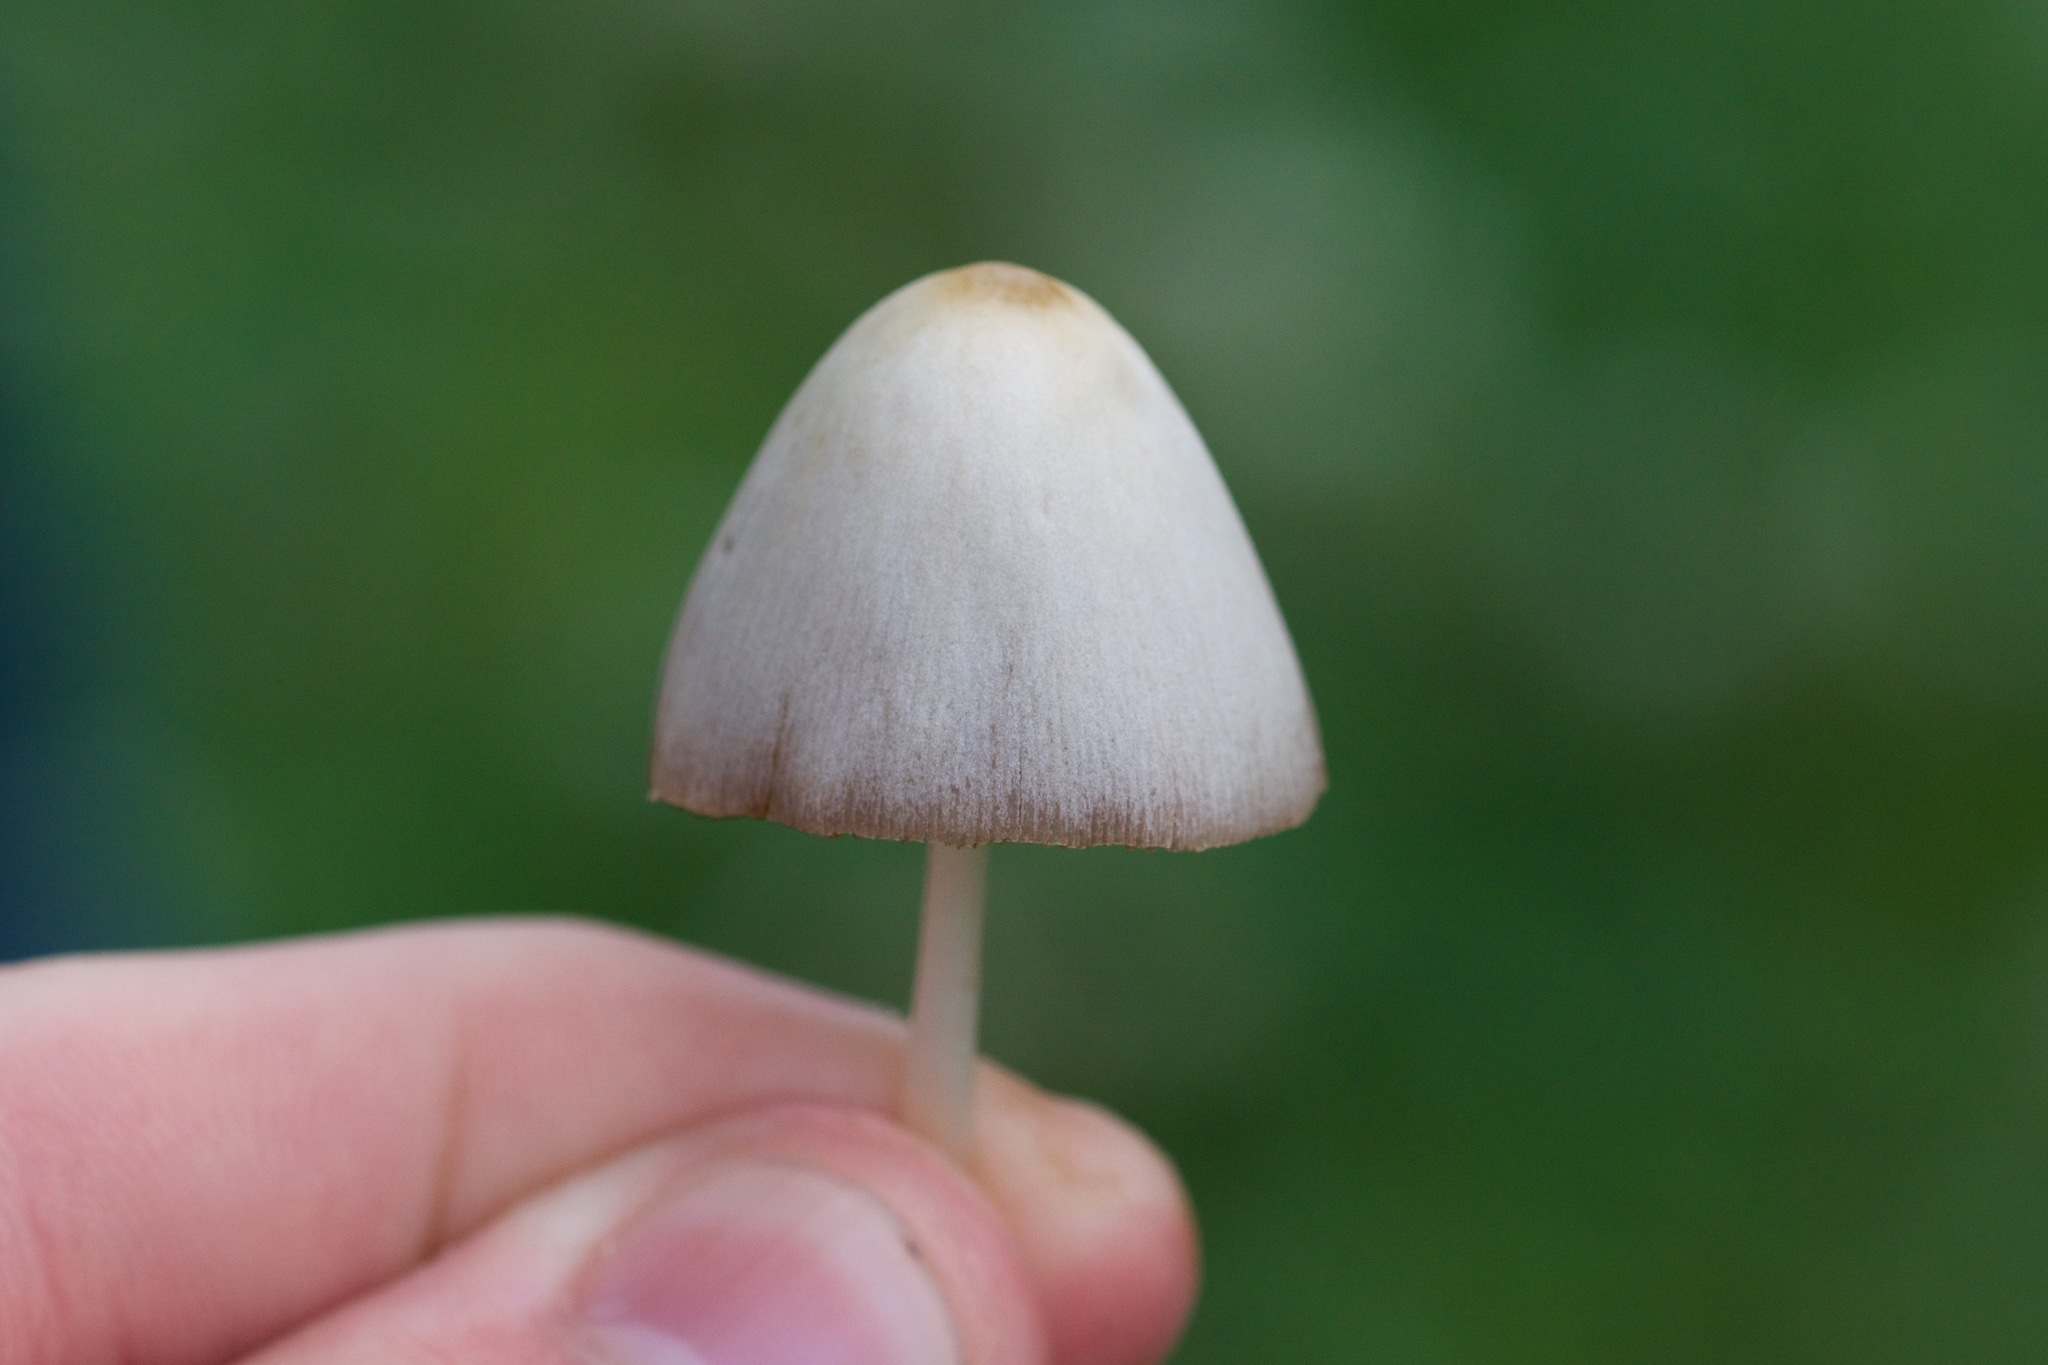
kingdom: Fungi
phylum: Basidiomycota
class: Agaricomycetes
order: Agaricales
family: Bolbitiaceae
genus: Conocybe
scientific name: Conocybe apala
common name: Milky conecap
